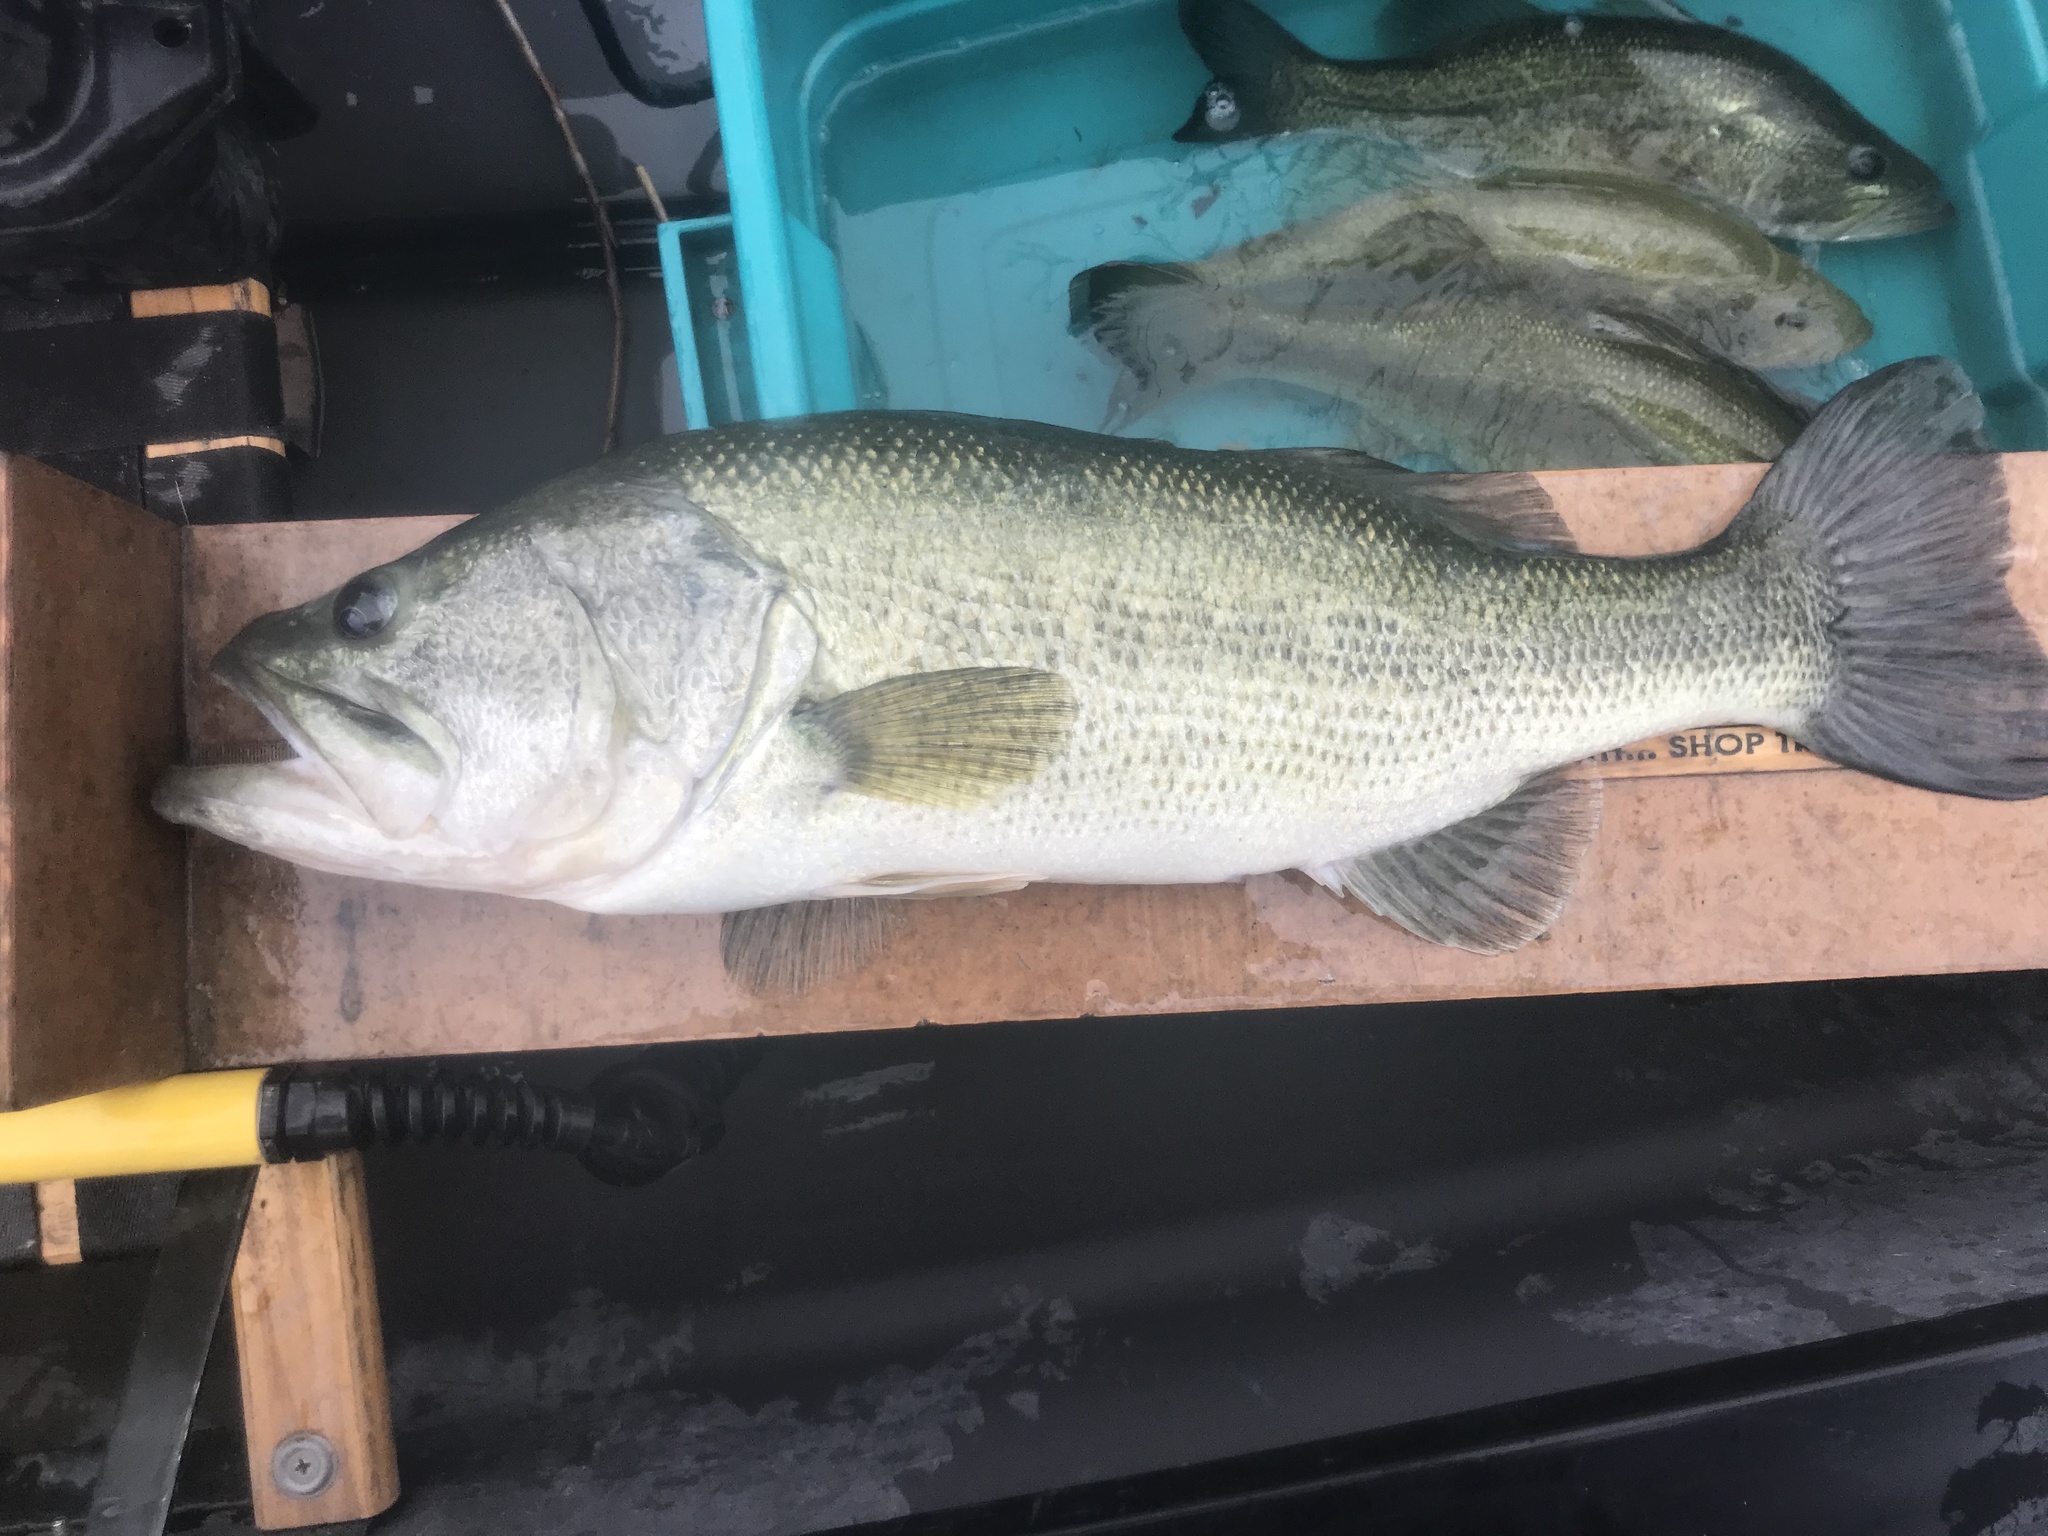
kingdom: Animalia
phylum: Chordata
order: Perciformes
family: Centrarchidae
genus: Micropterus
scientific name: Micropterus
